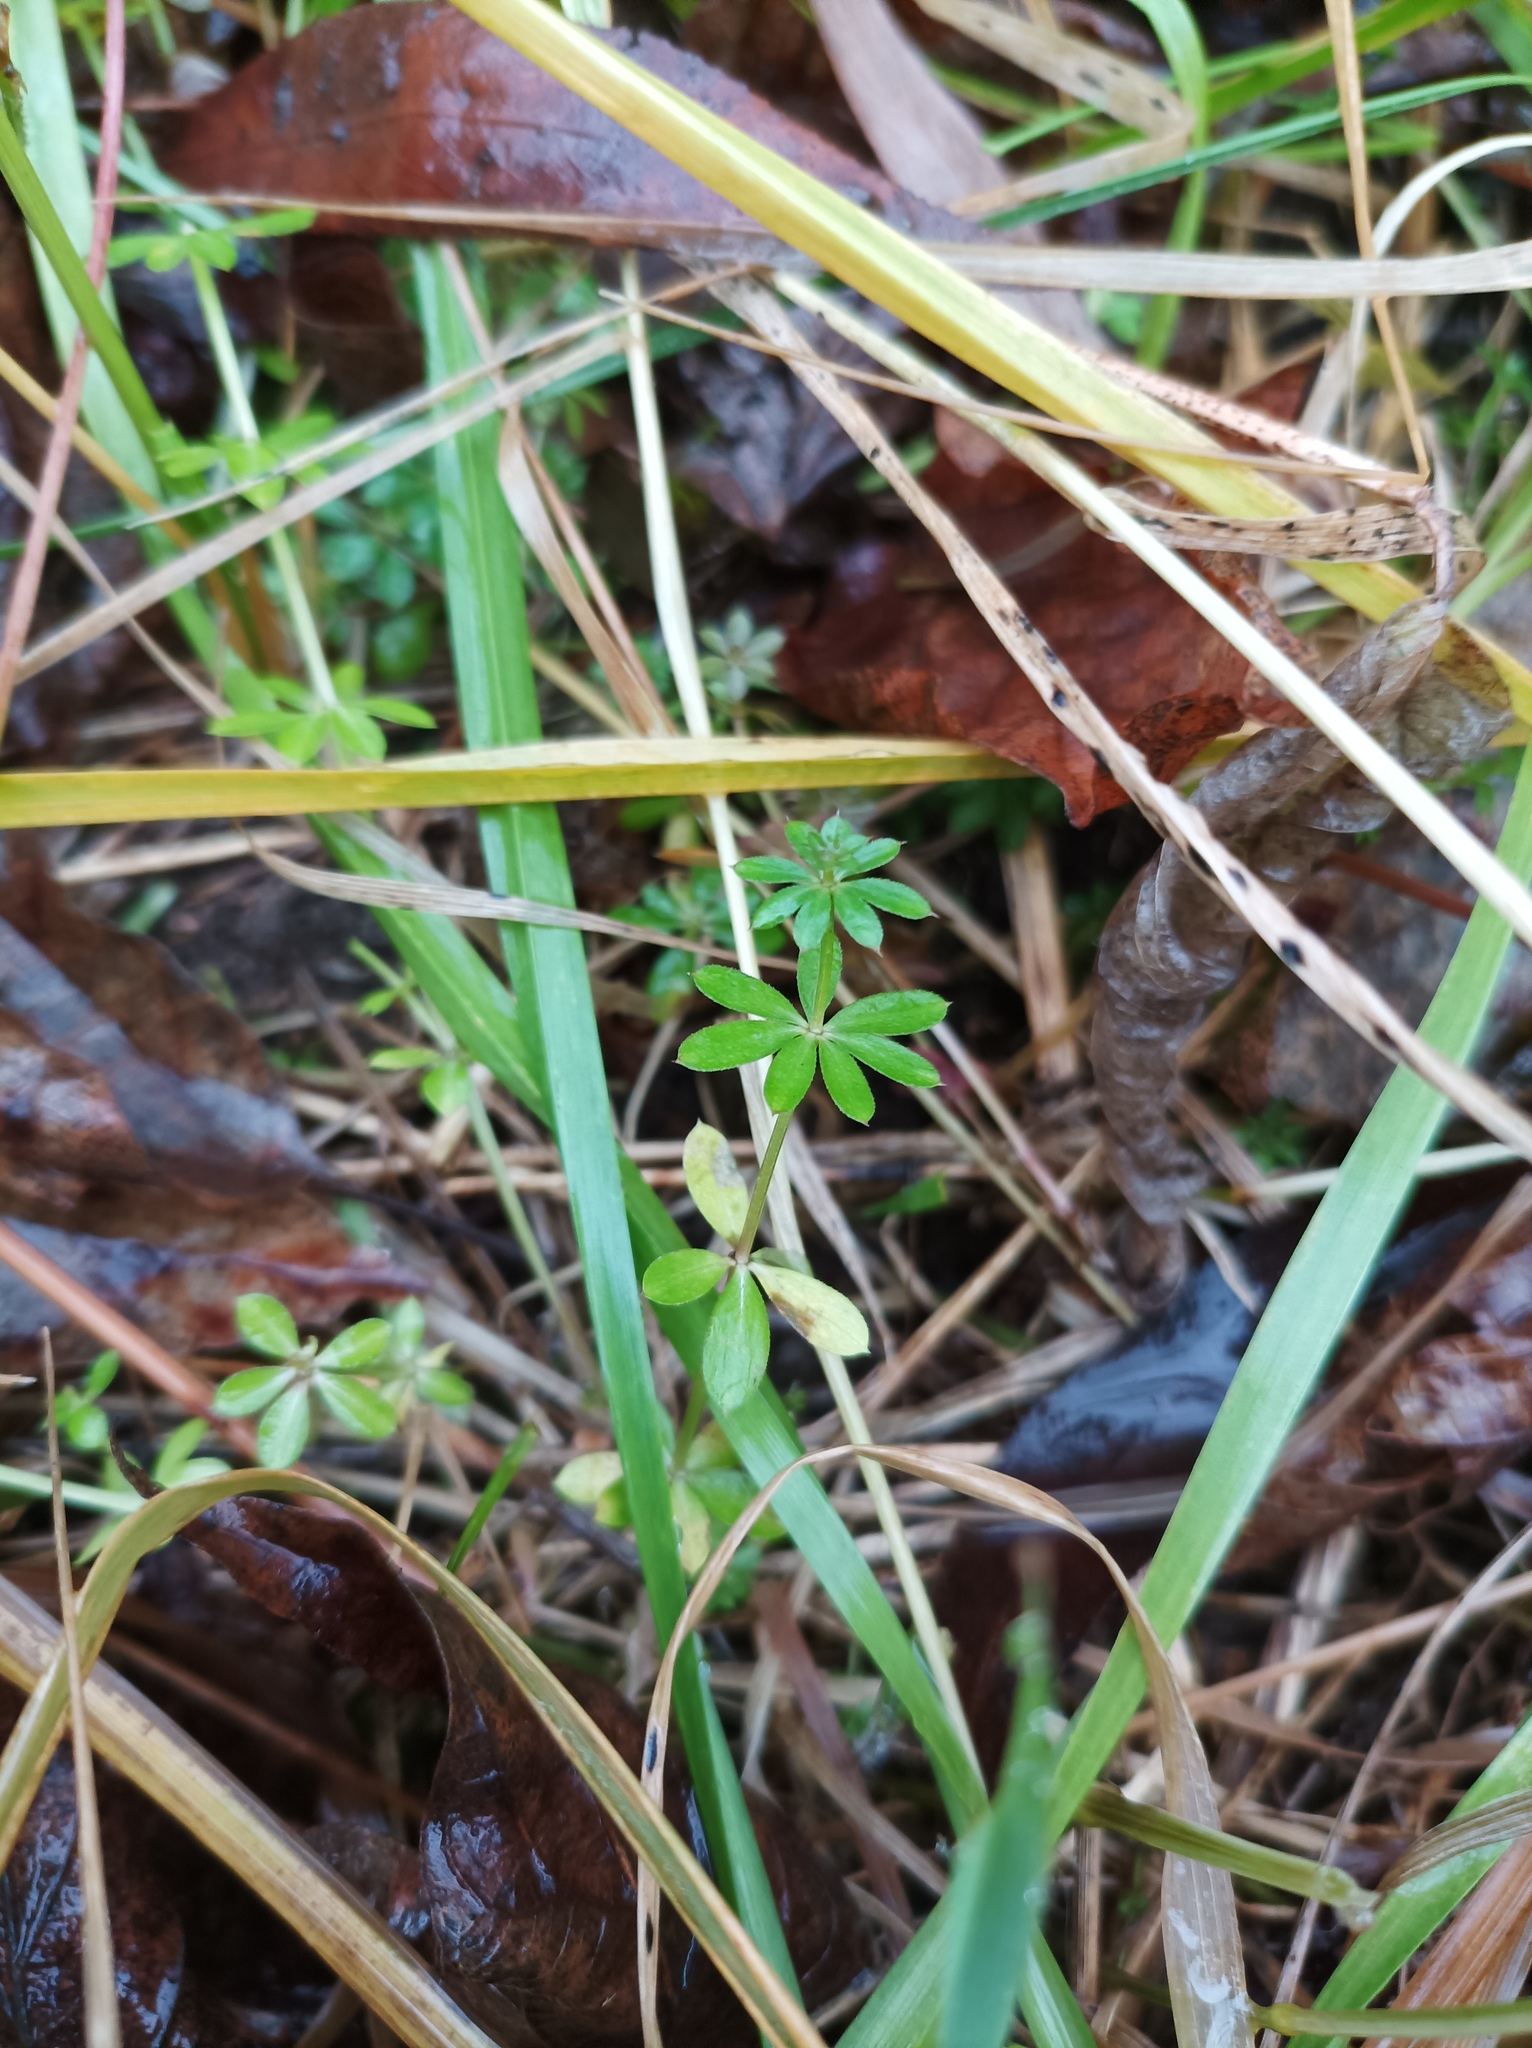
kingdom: Plantae
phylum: Tracheophyta
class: Magnoliopsida
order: Gentianales
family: Rubiaceae
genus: Galium
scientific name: Galium mollugo
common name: Hedge bedstraw
